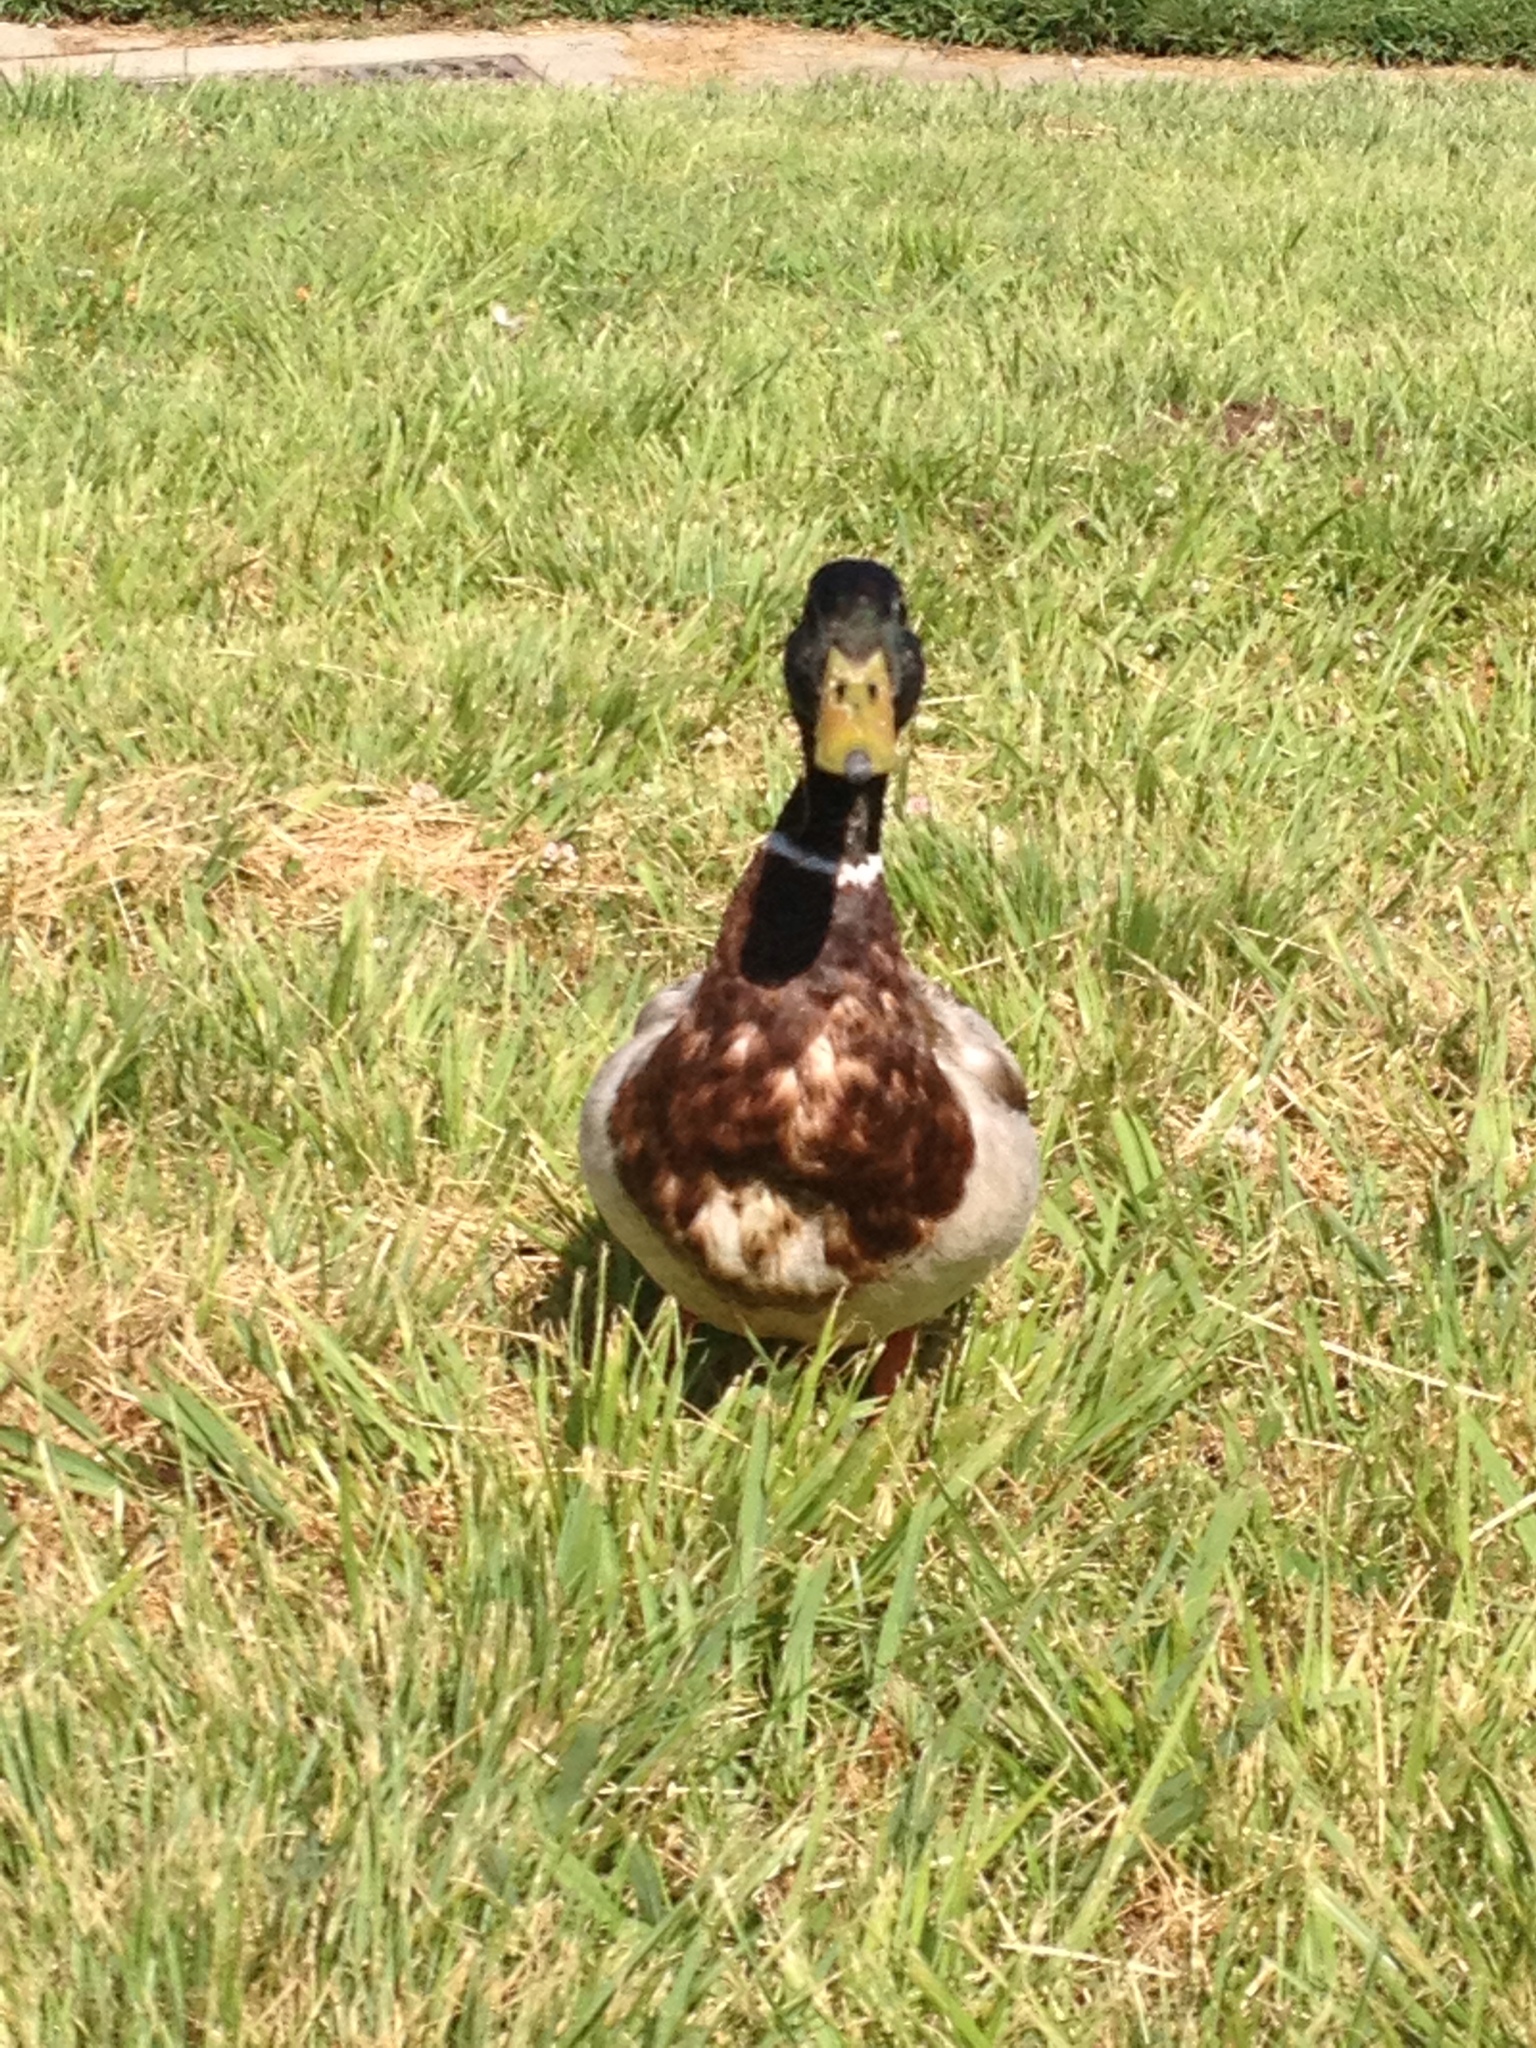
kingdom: Animalia
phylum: Chordata
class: Aves
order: Anseriformes
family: Anatidae
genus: Anas
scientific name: Anas platyrhynchos
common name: Mallard
